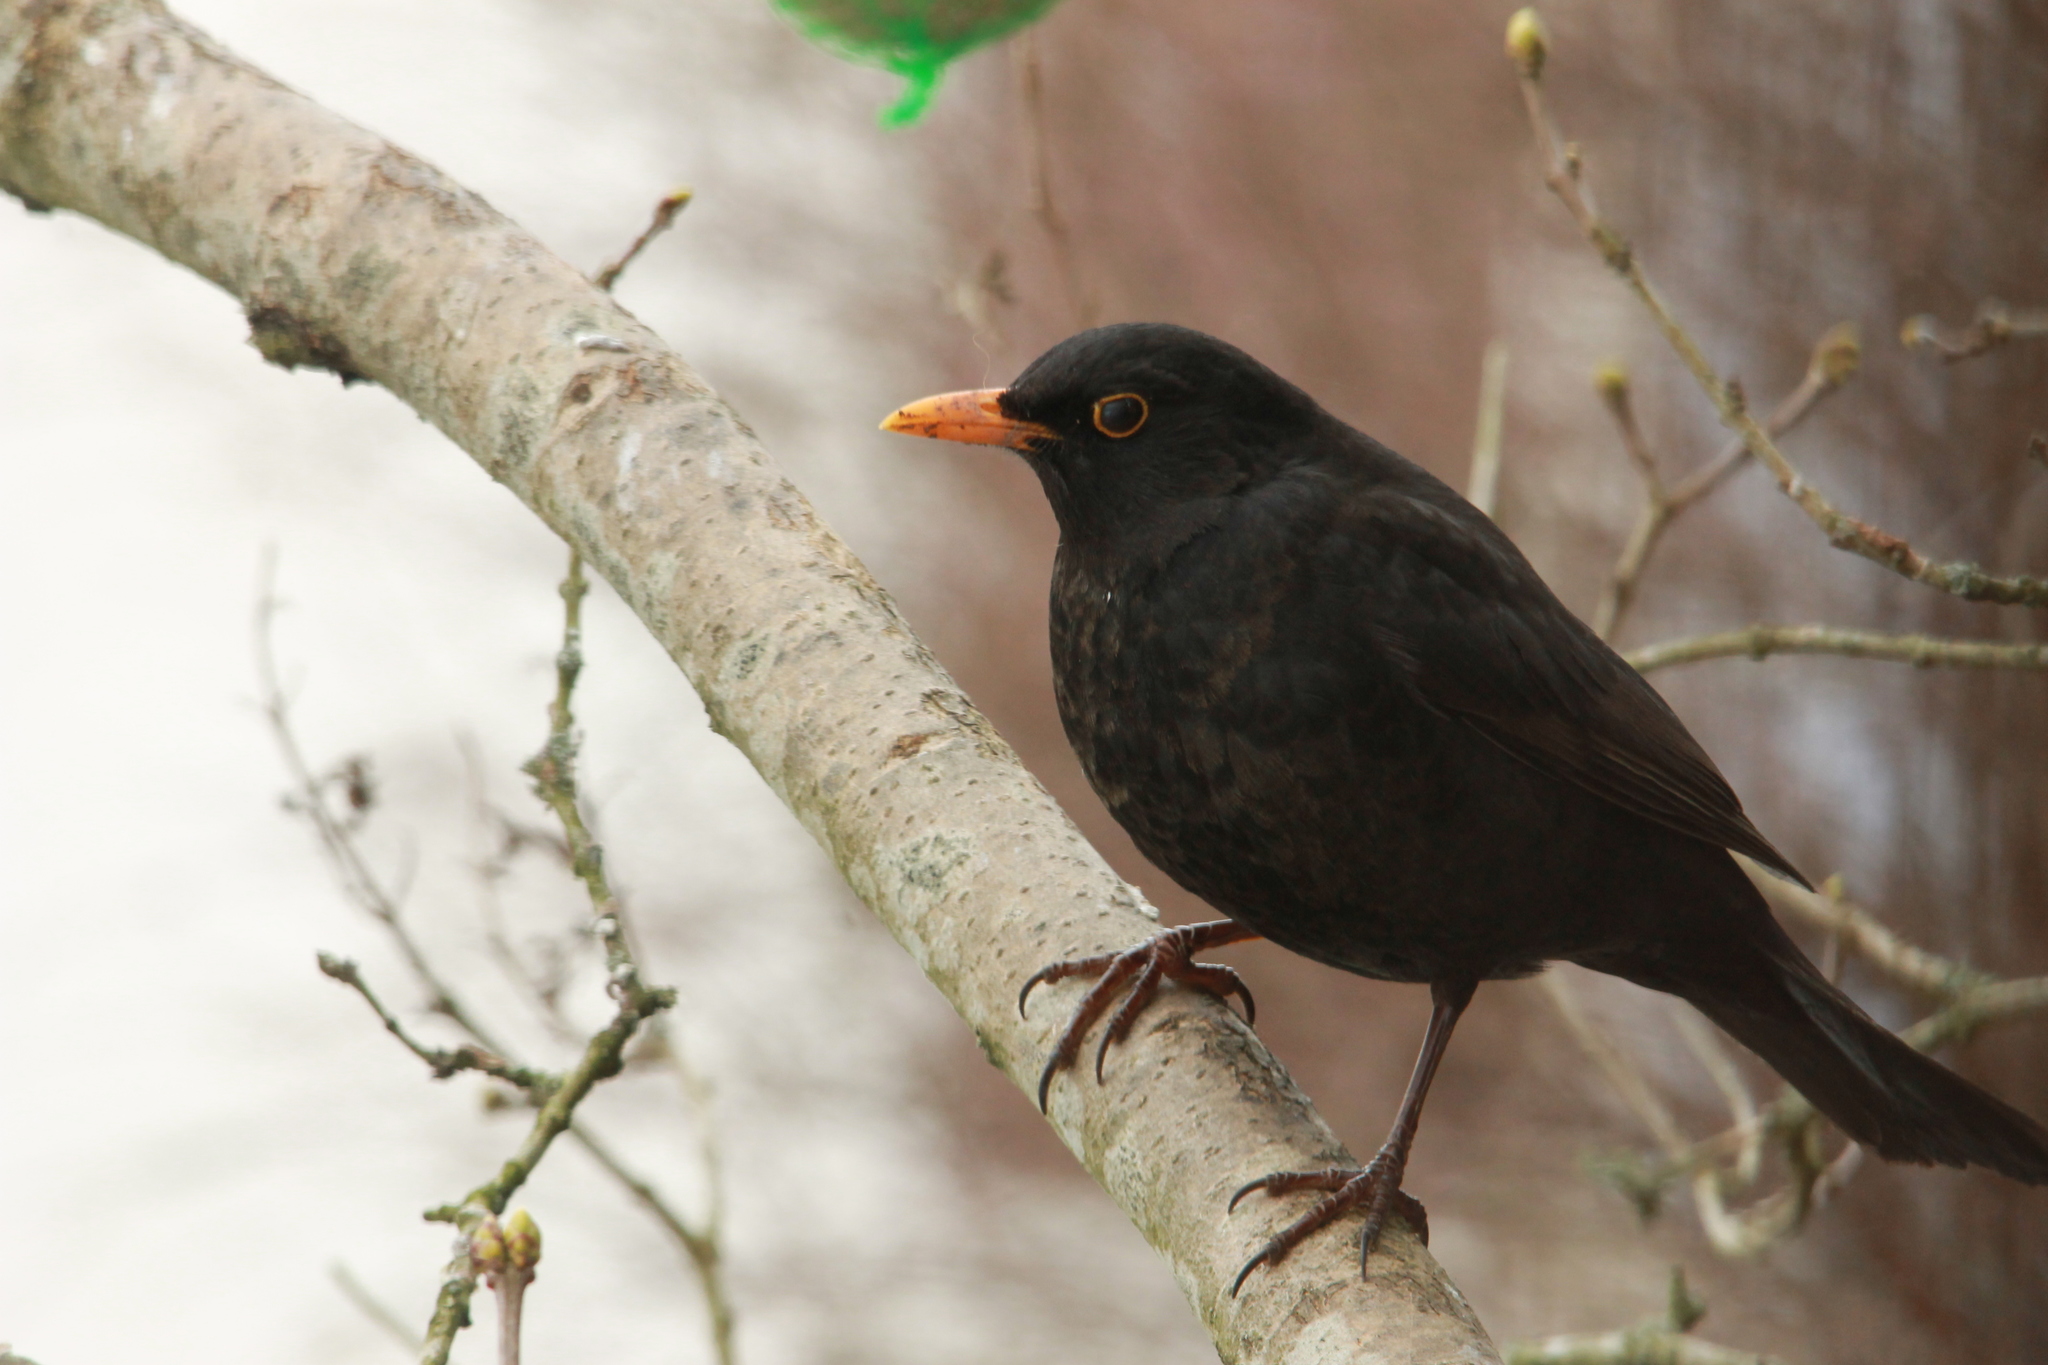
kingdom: Animalia
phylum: Chordata
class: Aves
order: Passeriformes
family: Turdidae
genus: Turdus
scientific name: Turdus merula
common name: Common blackbird
